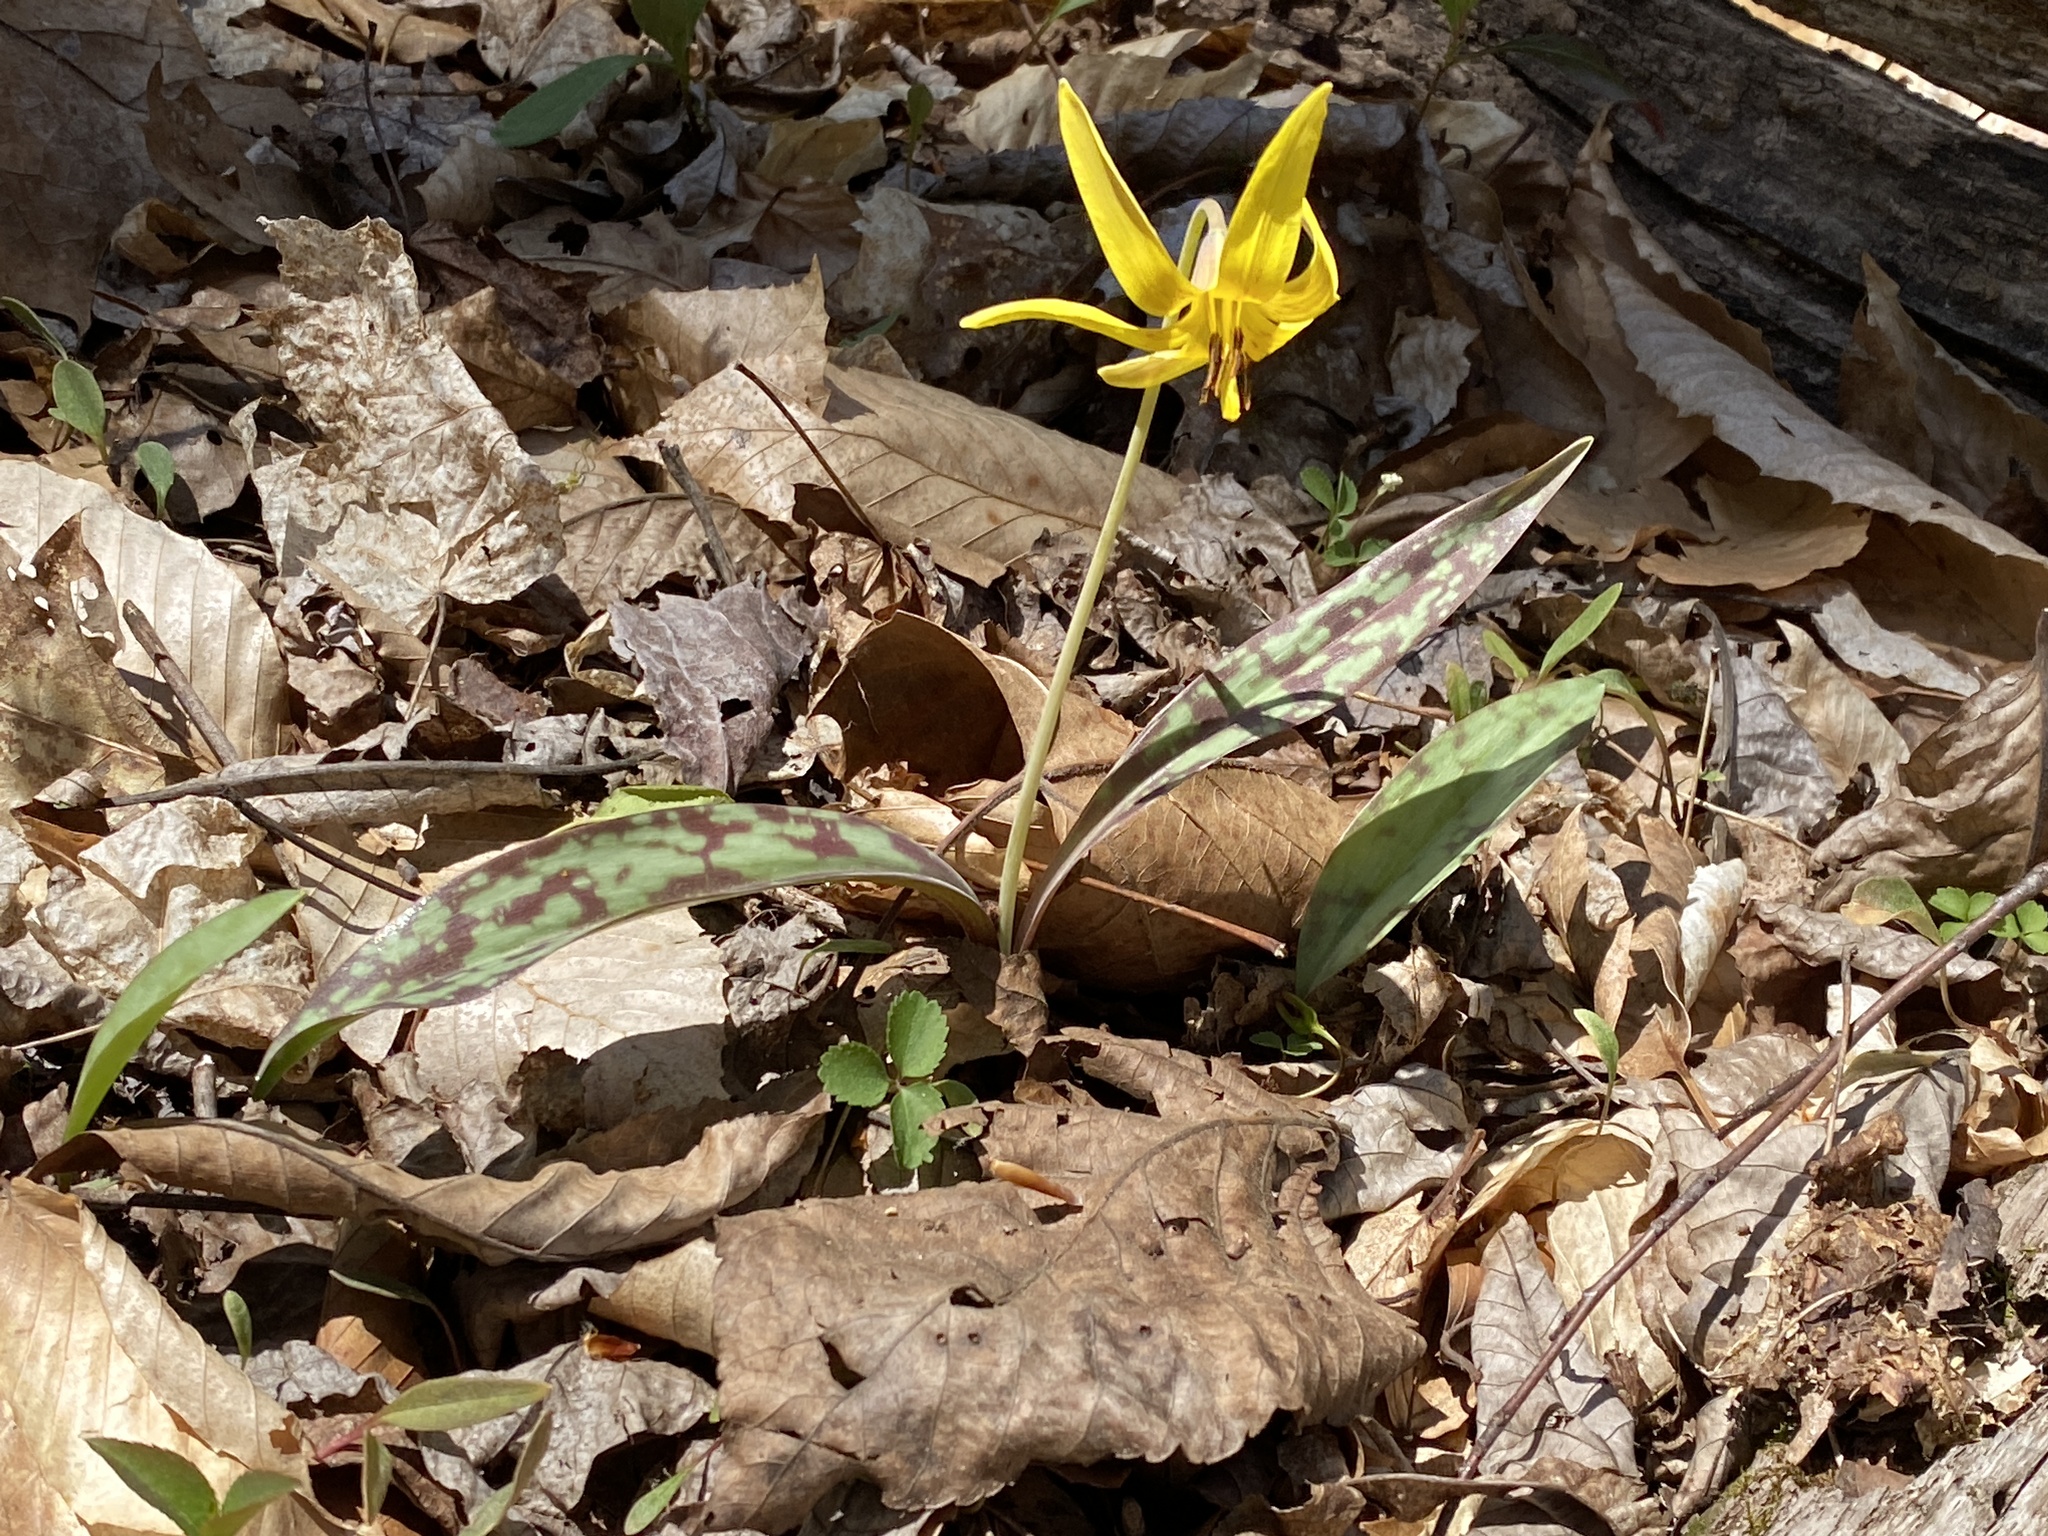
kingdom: Plantae
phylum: Tracheophyta
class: Liliopsida
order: Liliales
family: Liliaceae
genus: Erythronium
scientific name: Erythronium americanum
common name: Yellow adder's-tongue
